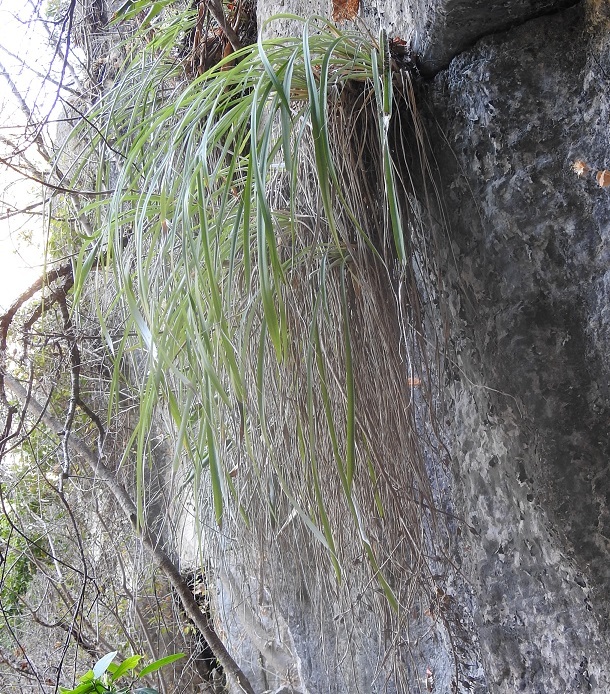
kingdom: Plantae
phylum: Tracheophyta
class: Liliopsida
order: Poales
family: Bromeliaceae
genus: Pitcairnia
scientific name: Pitcairnia breedlovei
